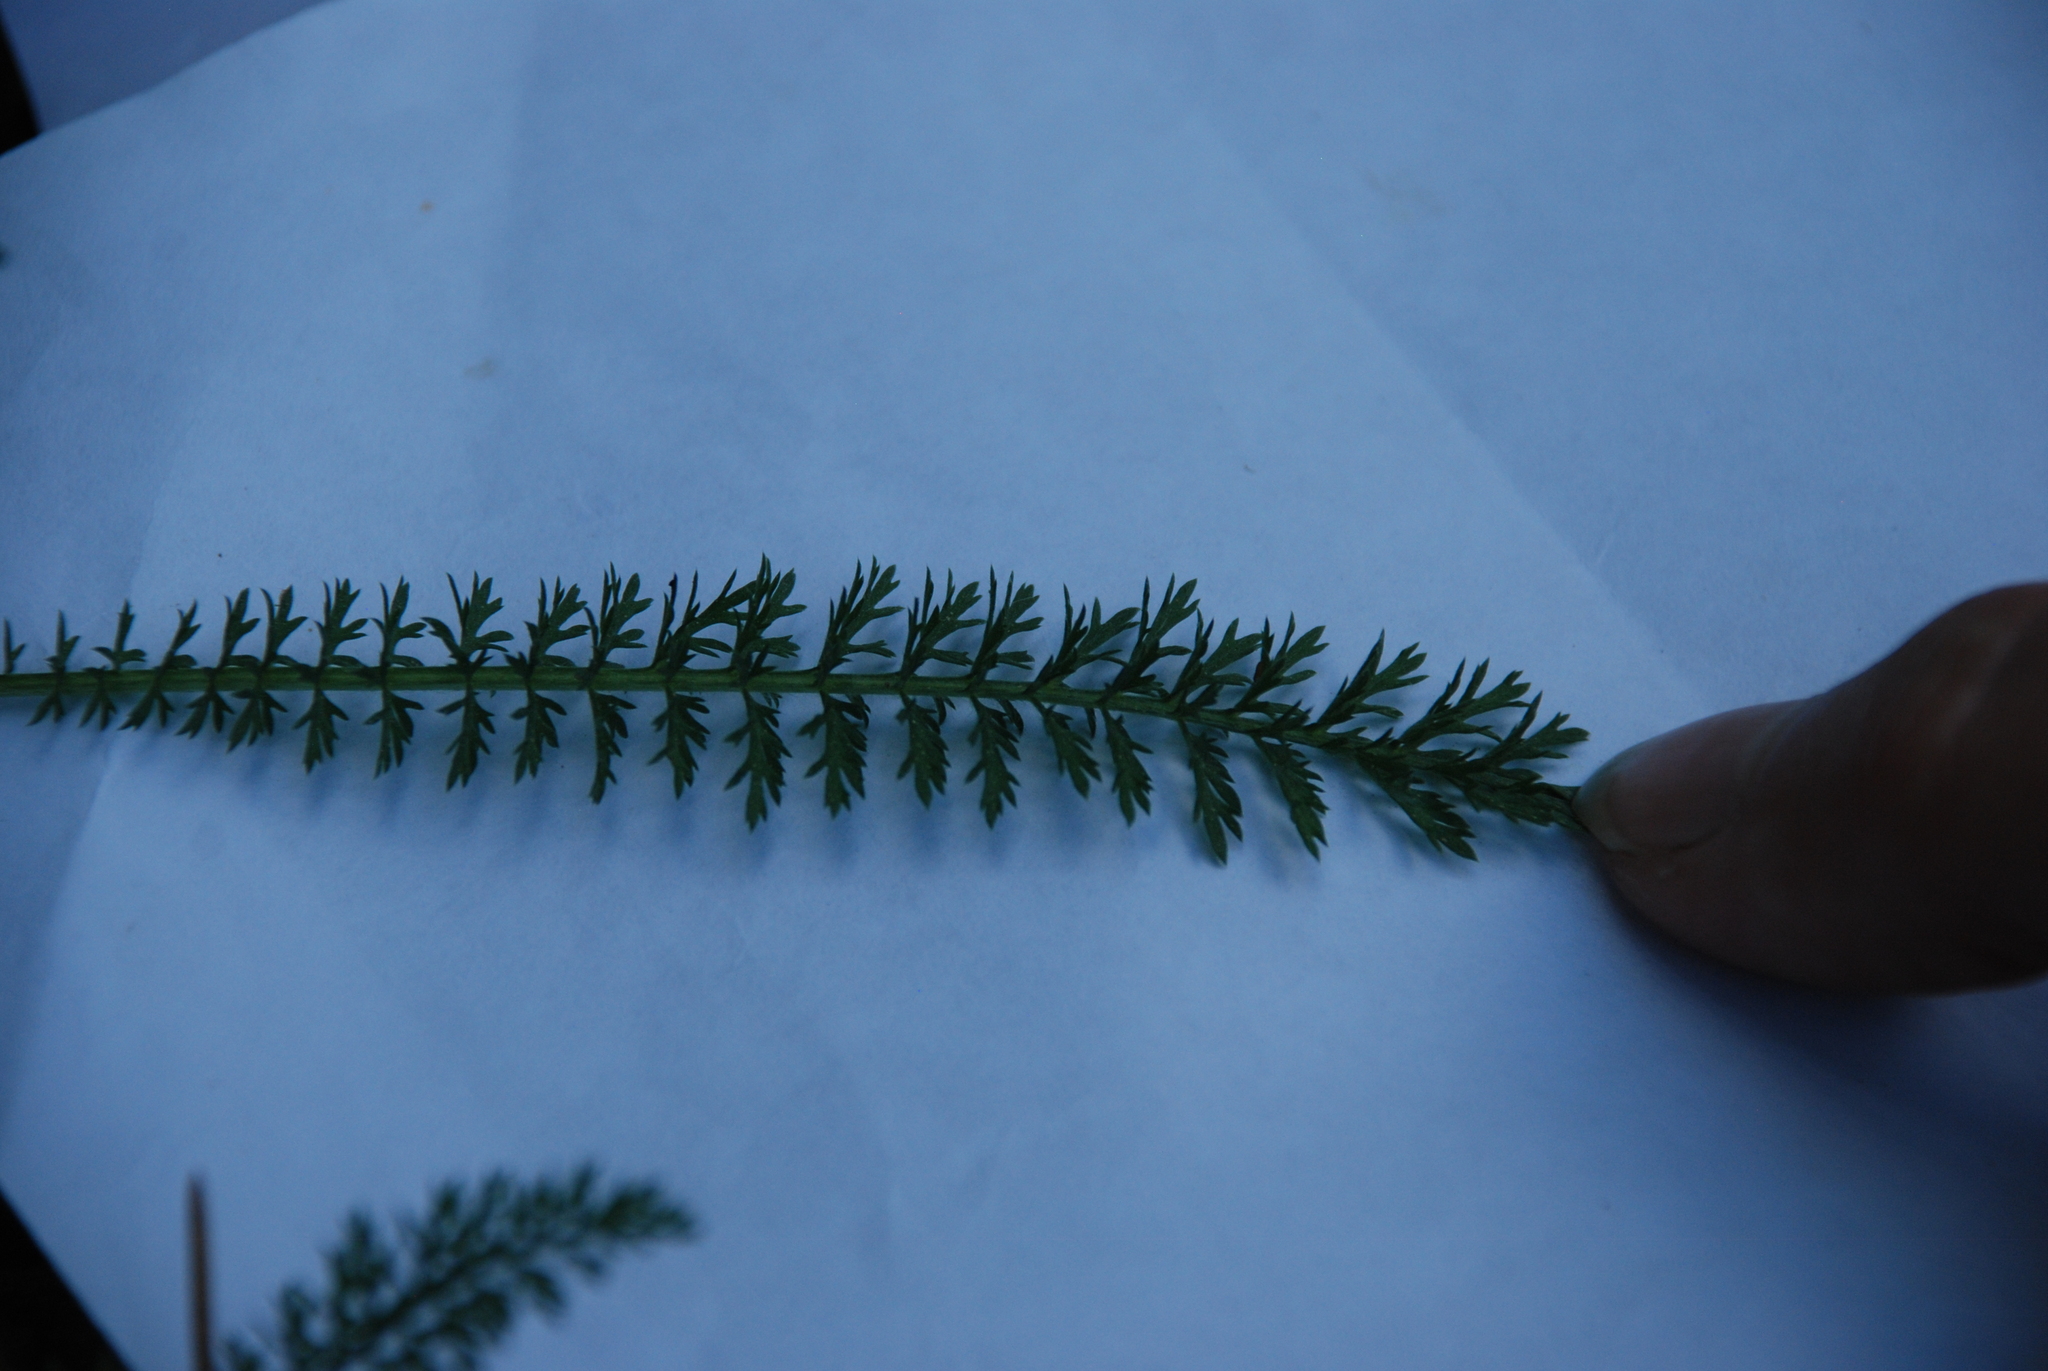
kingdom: Plantae
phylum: Tracheophyta
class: Magnoliopsida
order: Asterales
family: Asteraceae
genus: Achillea
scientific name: Achillea millefolium
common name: Yarrow
